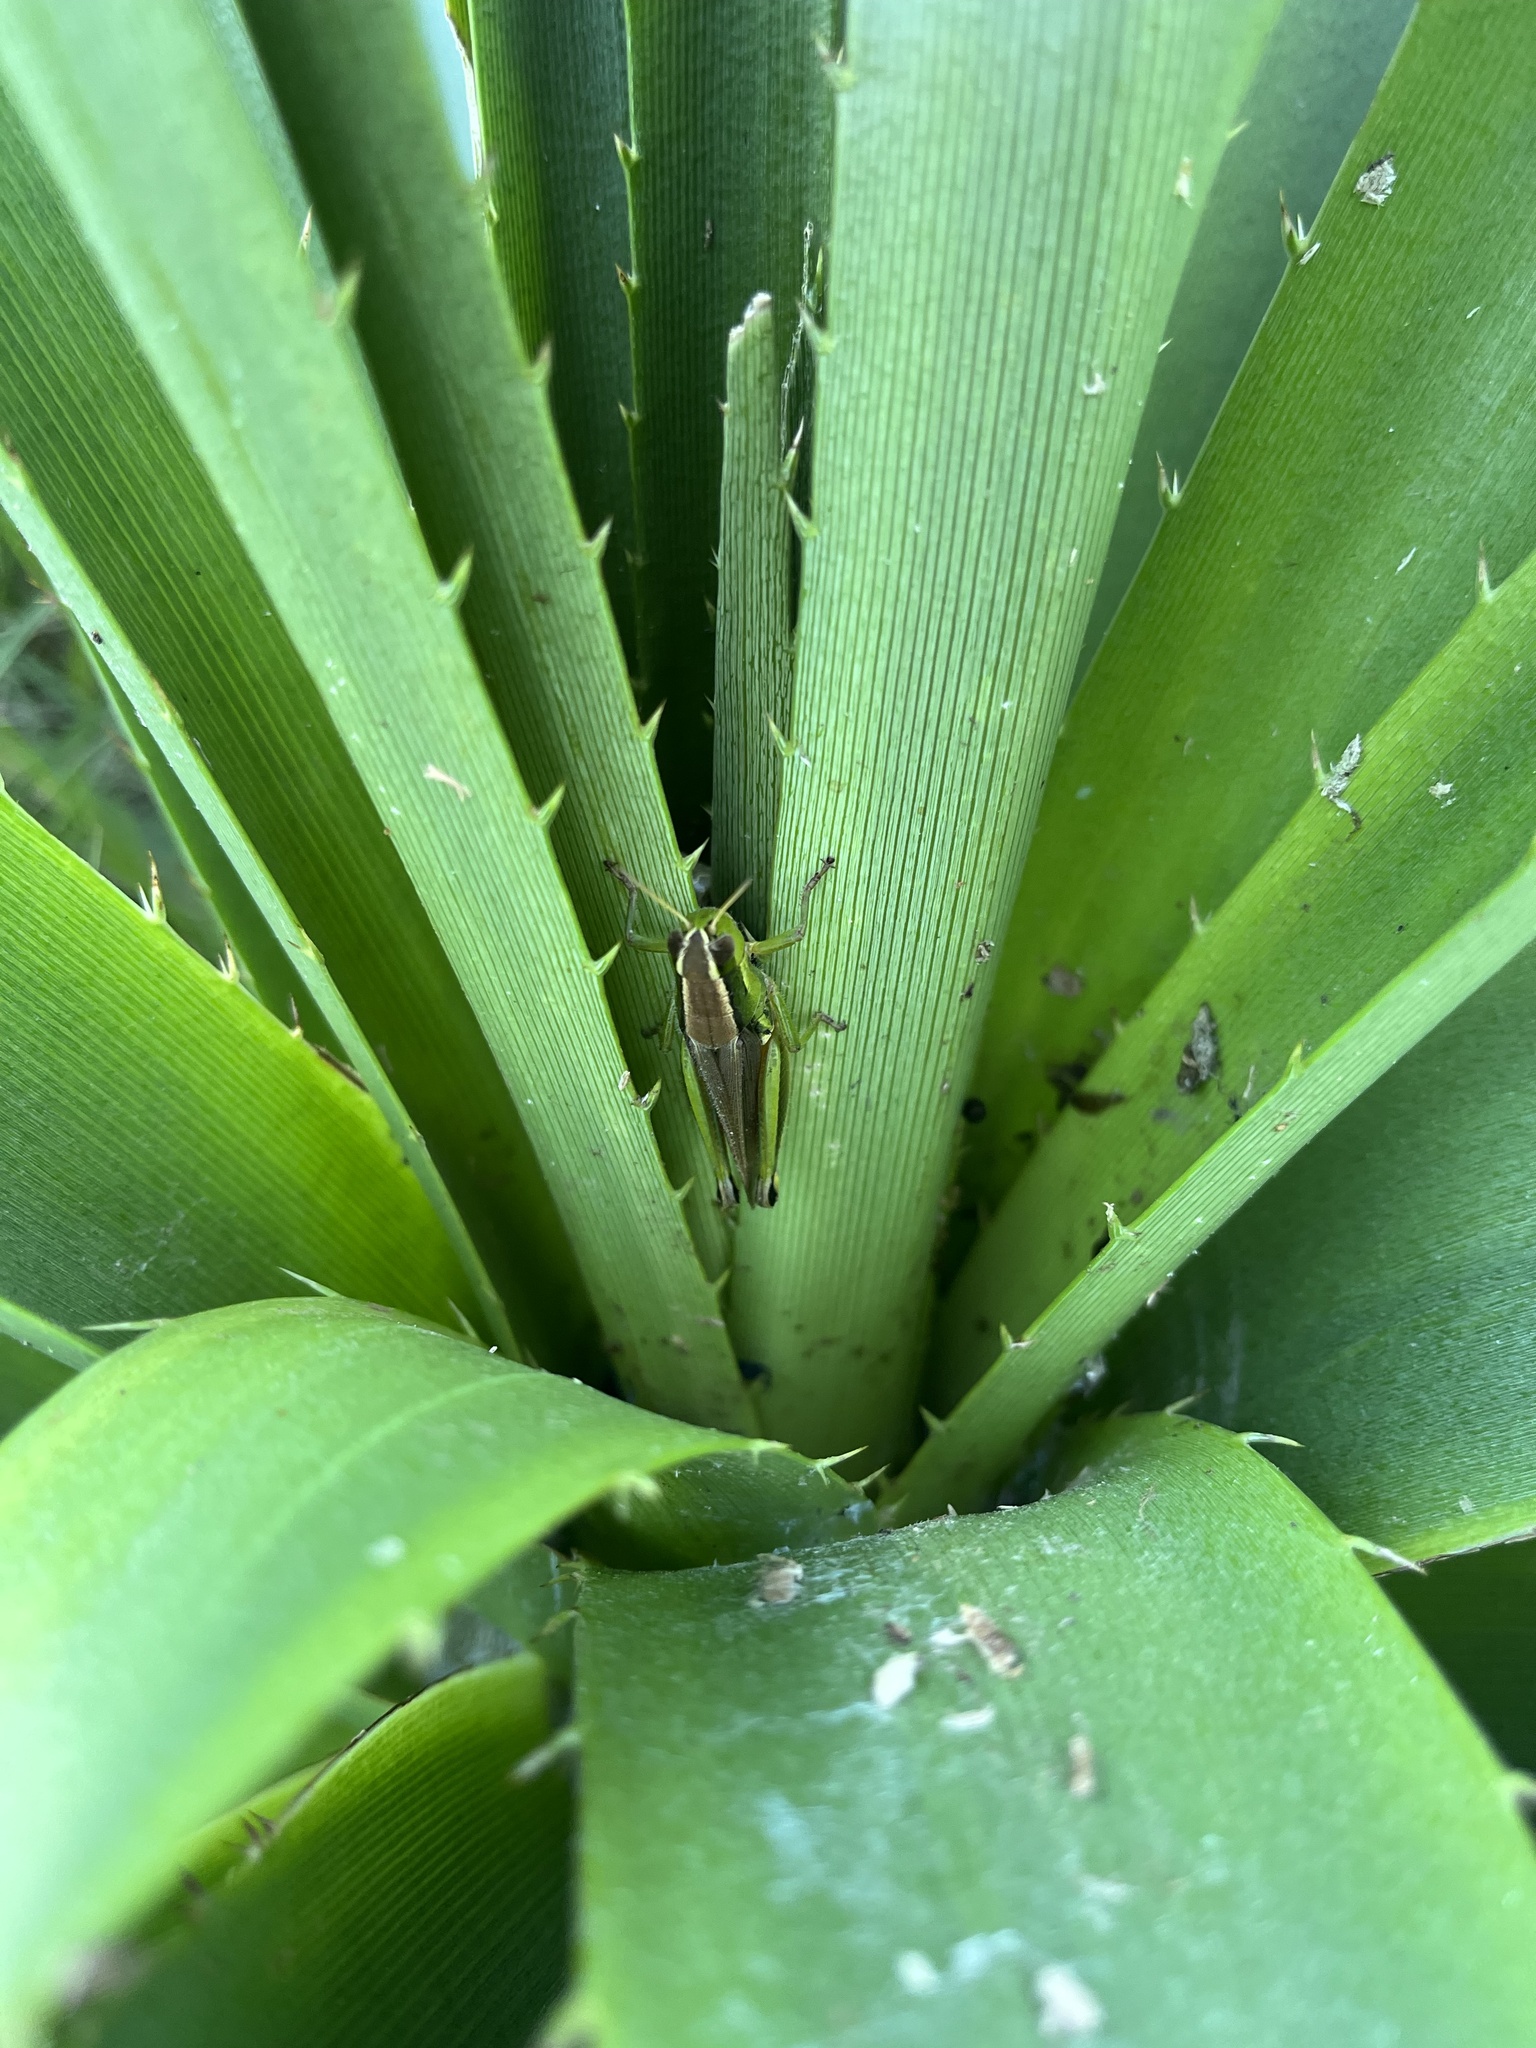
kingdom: Animalia
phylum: Arthropoda
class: Insecta
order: Orthoptera
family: Acrididae
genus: Scotussa
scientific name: Scotussa cliens
